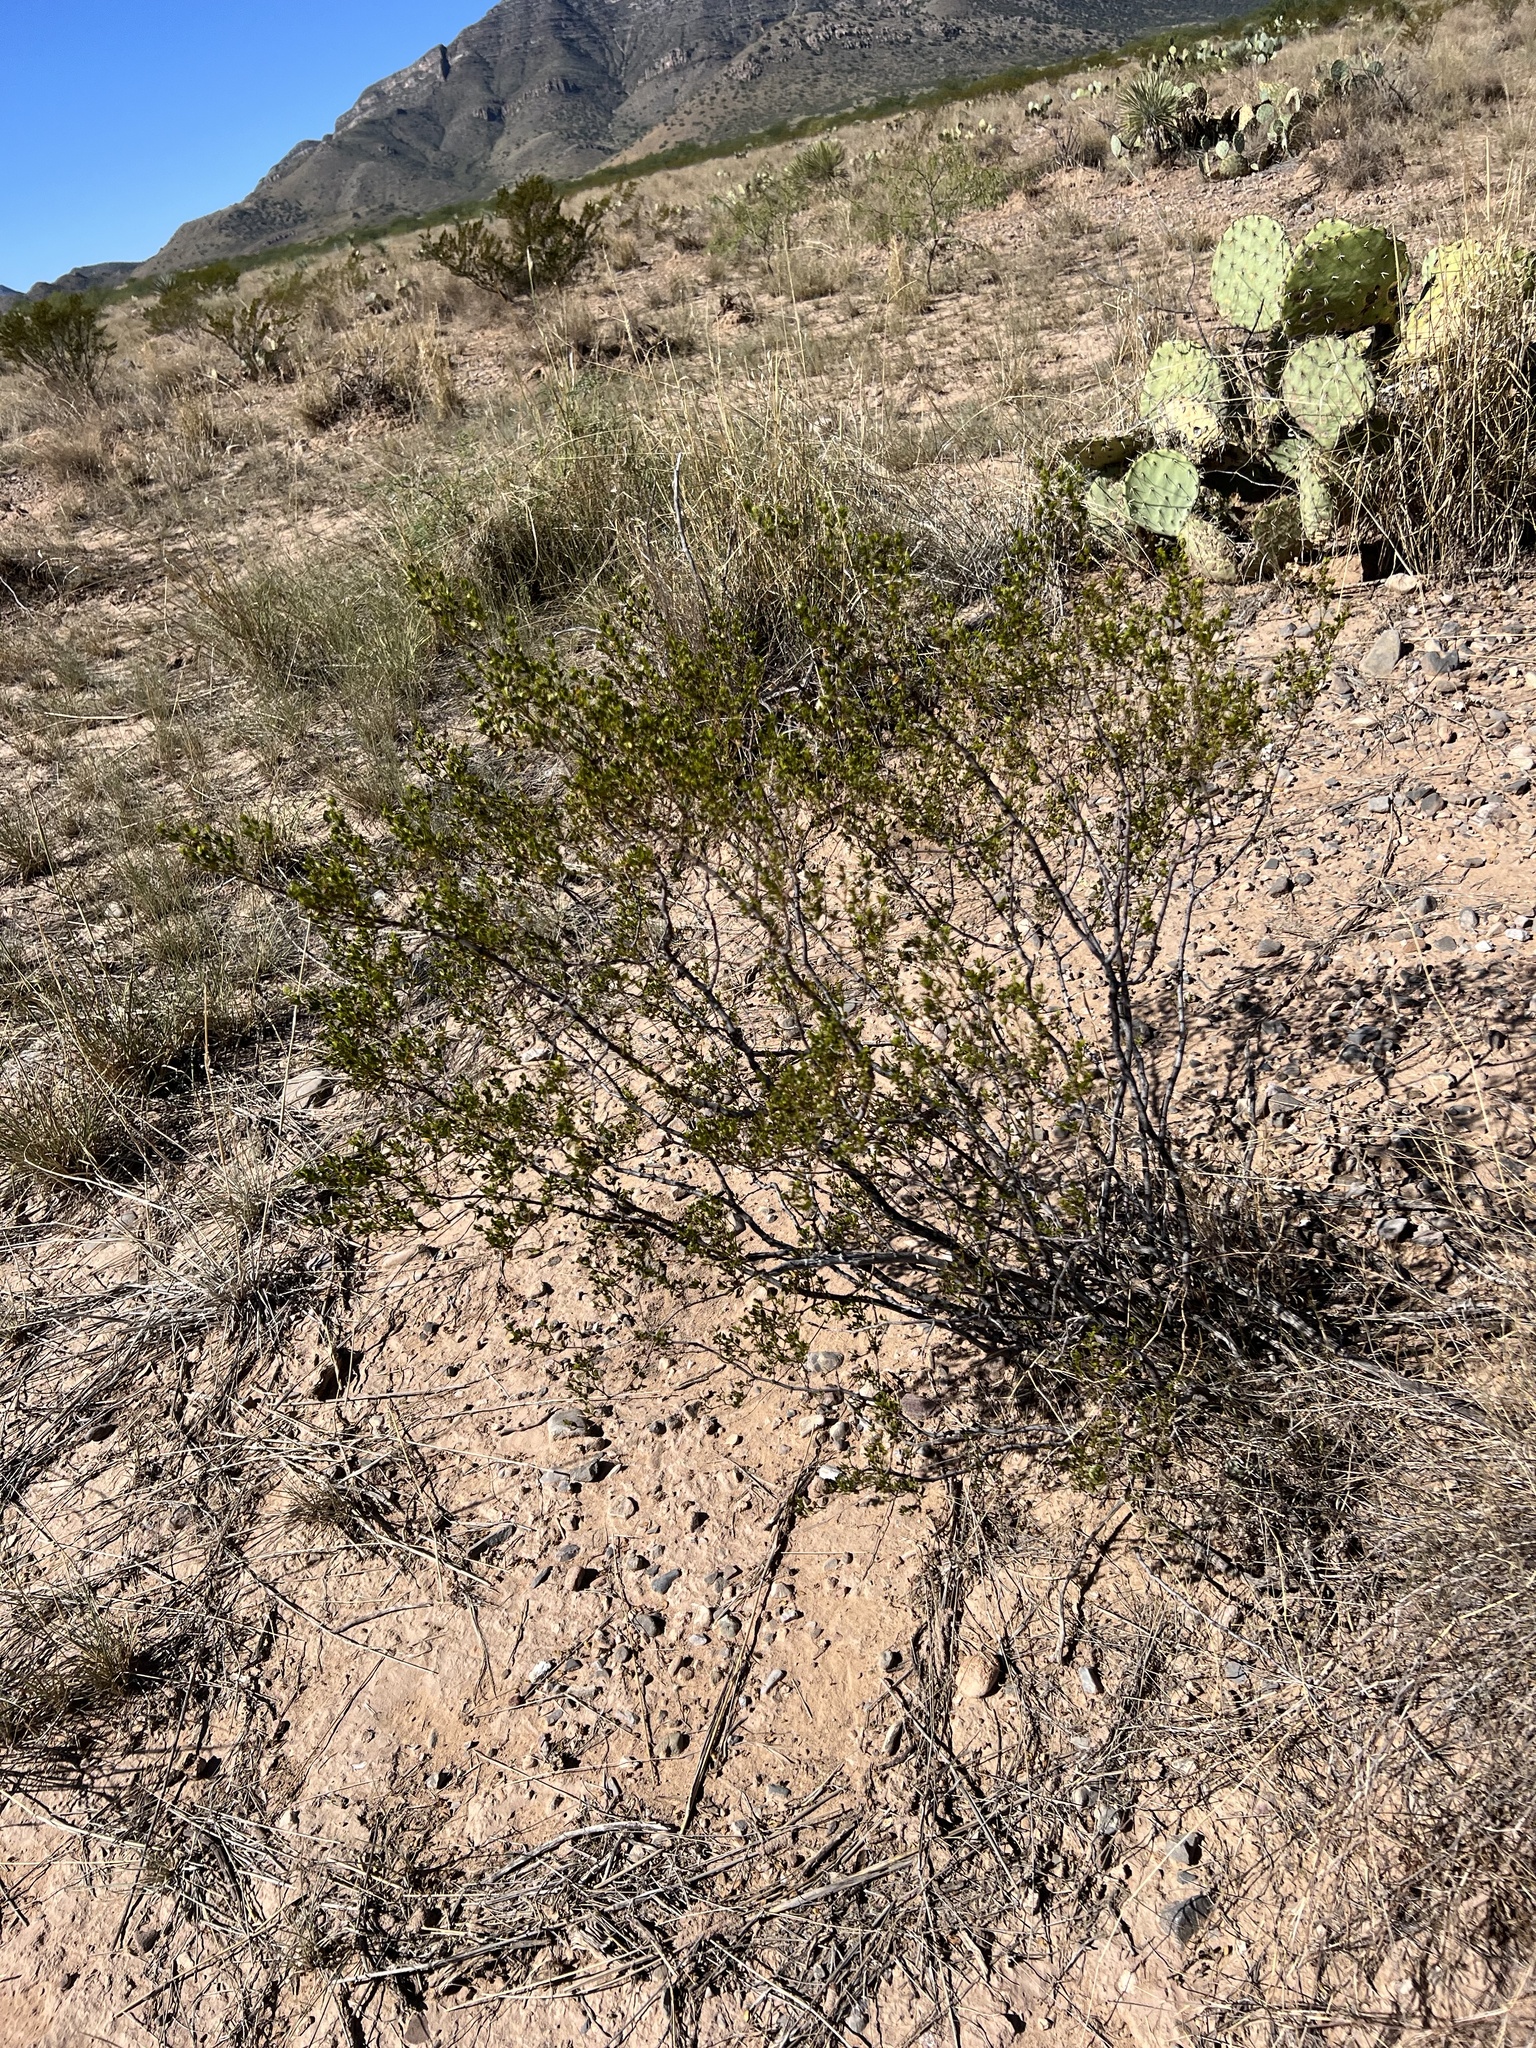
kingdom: Plantae
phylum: Tracheophyta
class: Magnoliopsida
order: Zygophyllales
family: Zygophyllaceae
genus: Larrea
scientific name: Larrea tridentata
